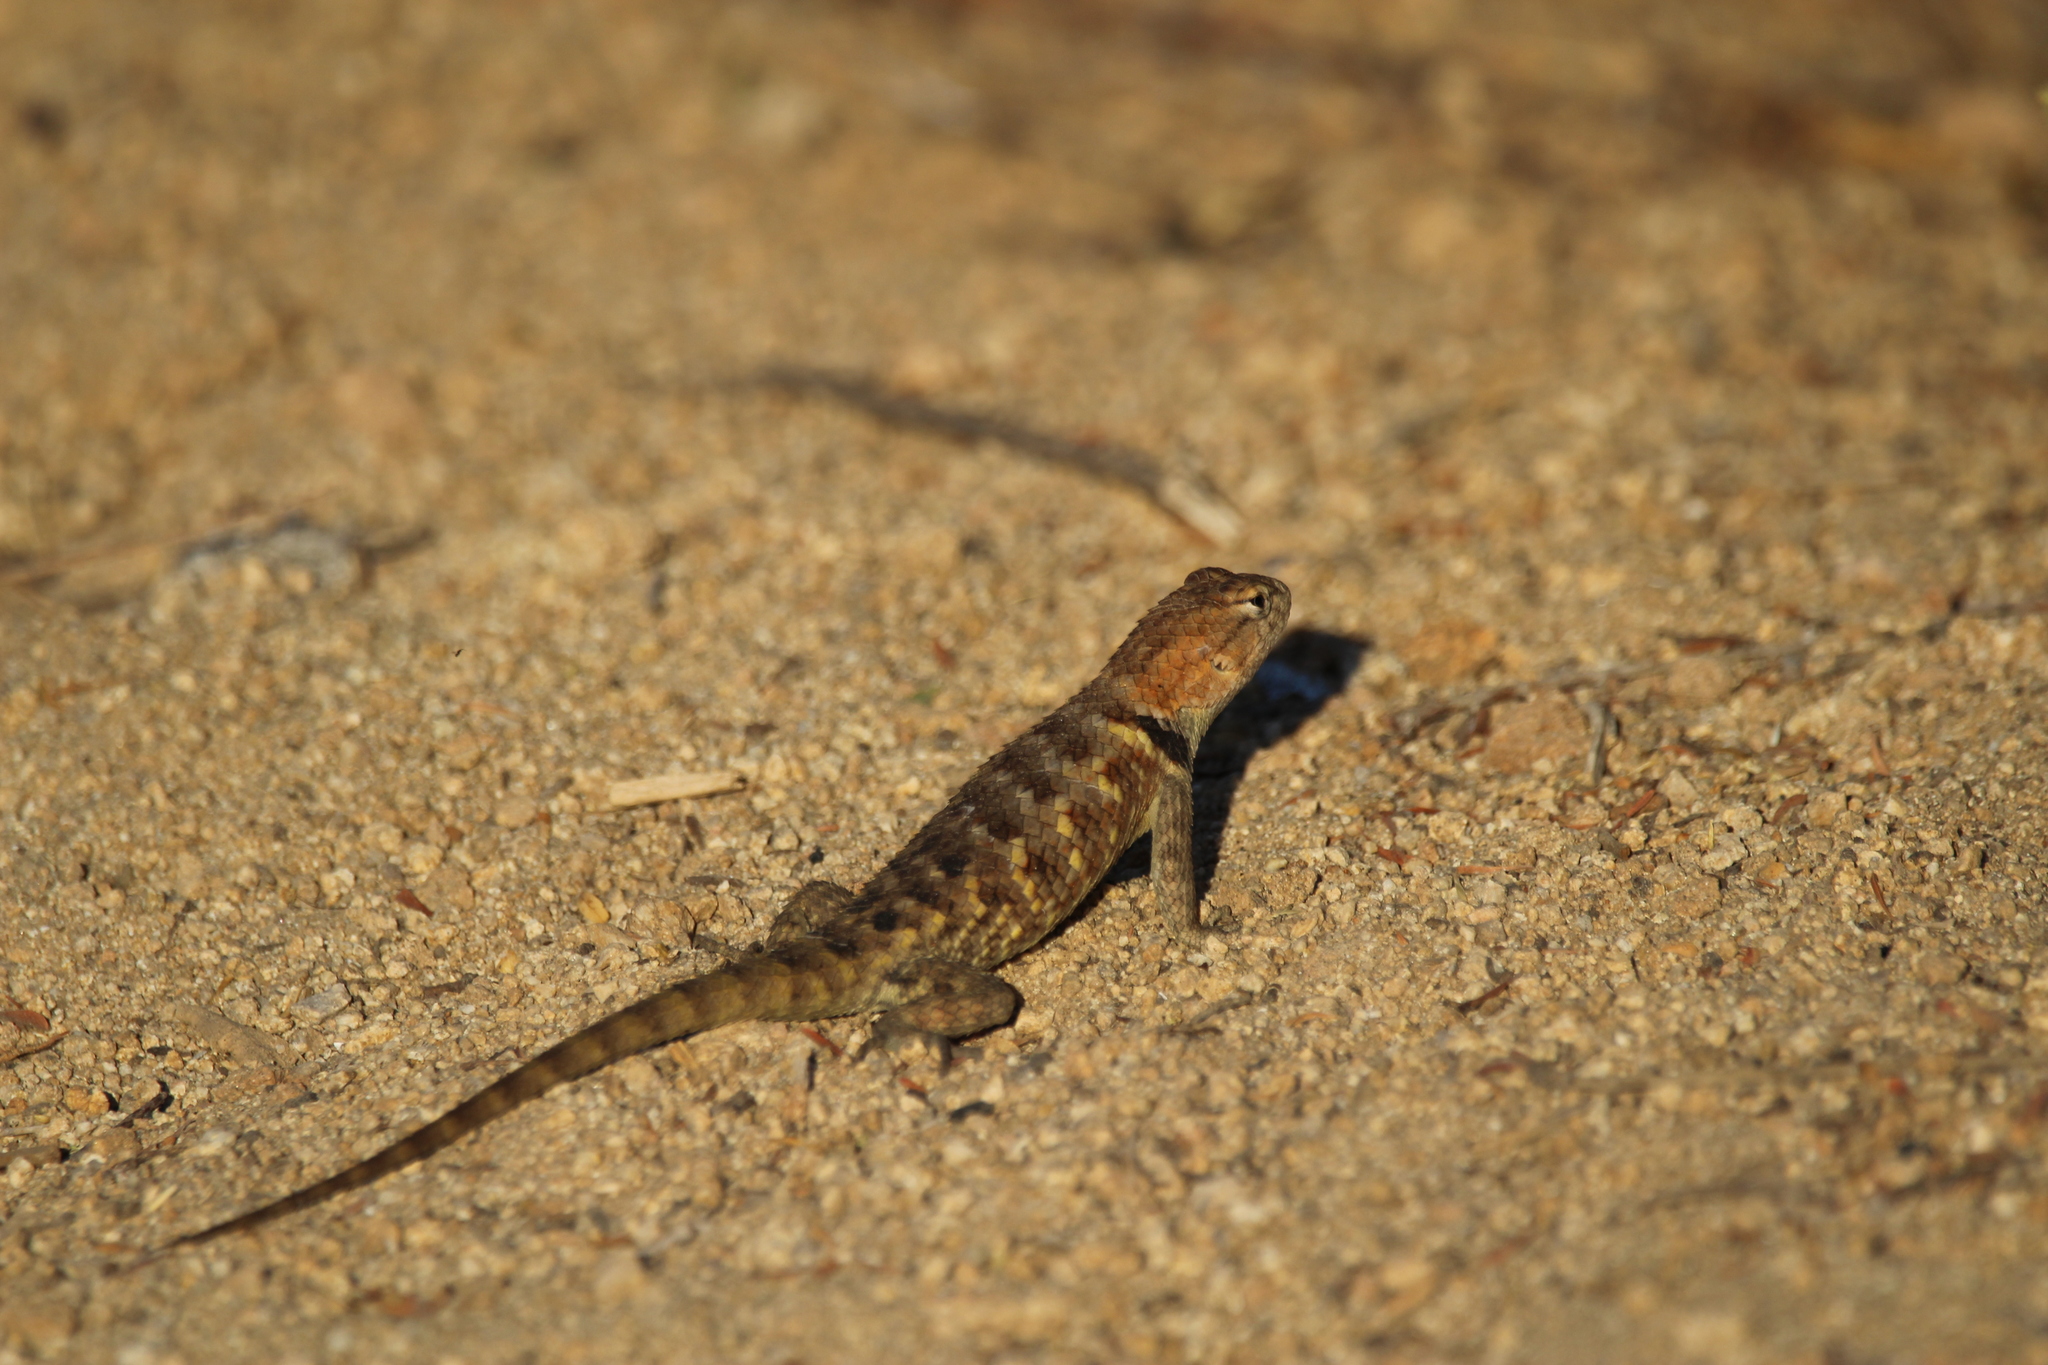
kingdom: Animalia
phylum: Chordata
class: Squamata
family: Phrynosomatidae
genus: Sceloporus
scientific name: Sceloporus uniformis
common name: Yellow-backed spiny lizard
